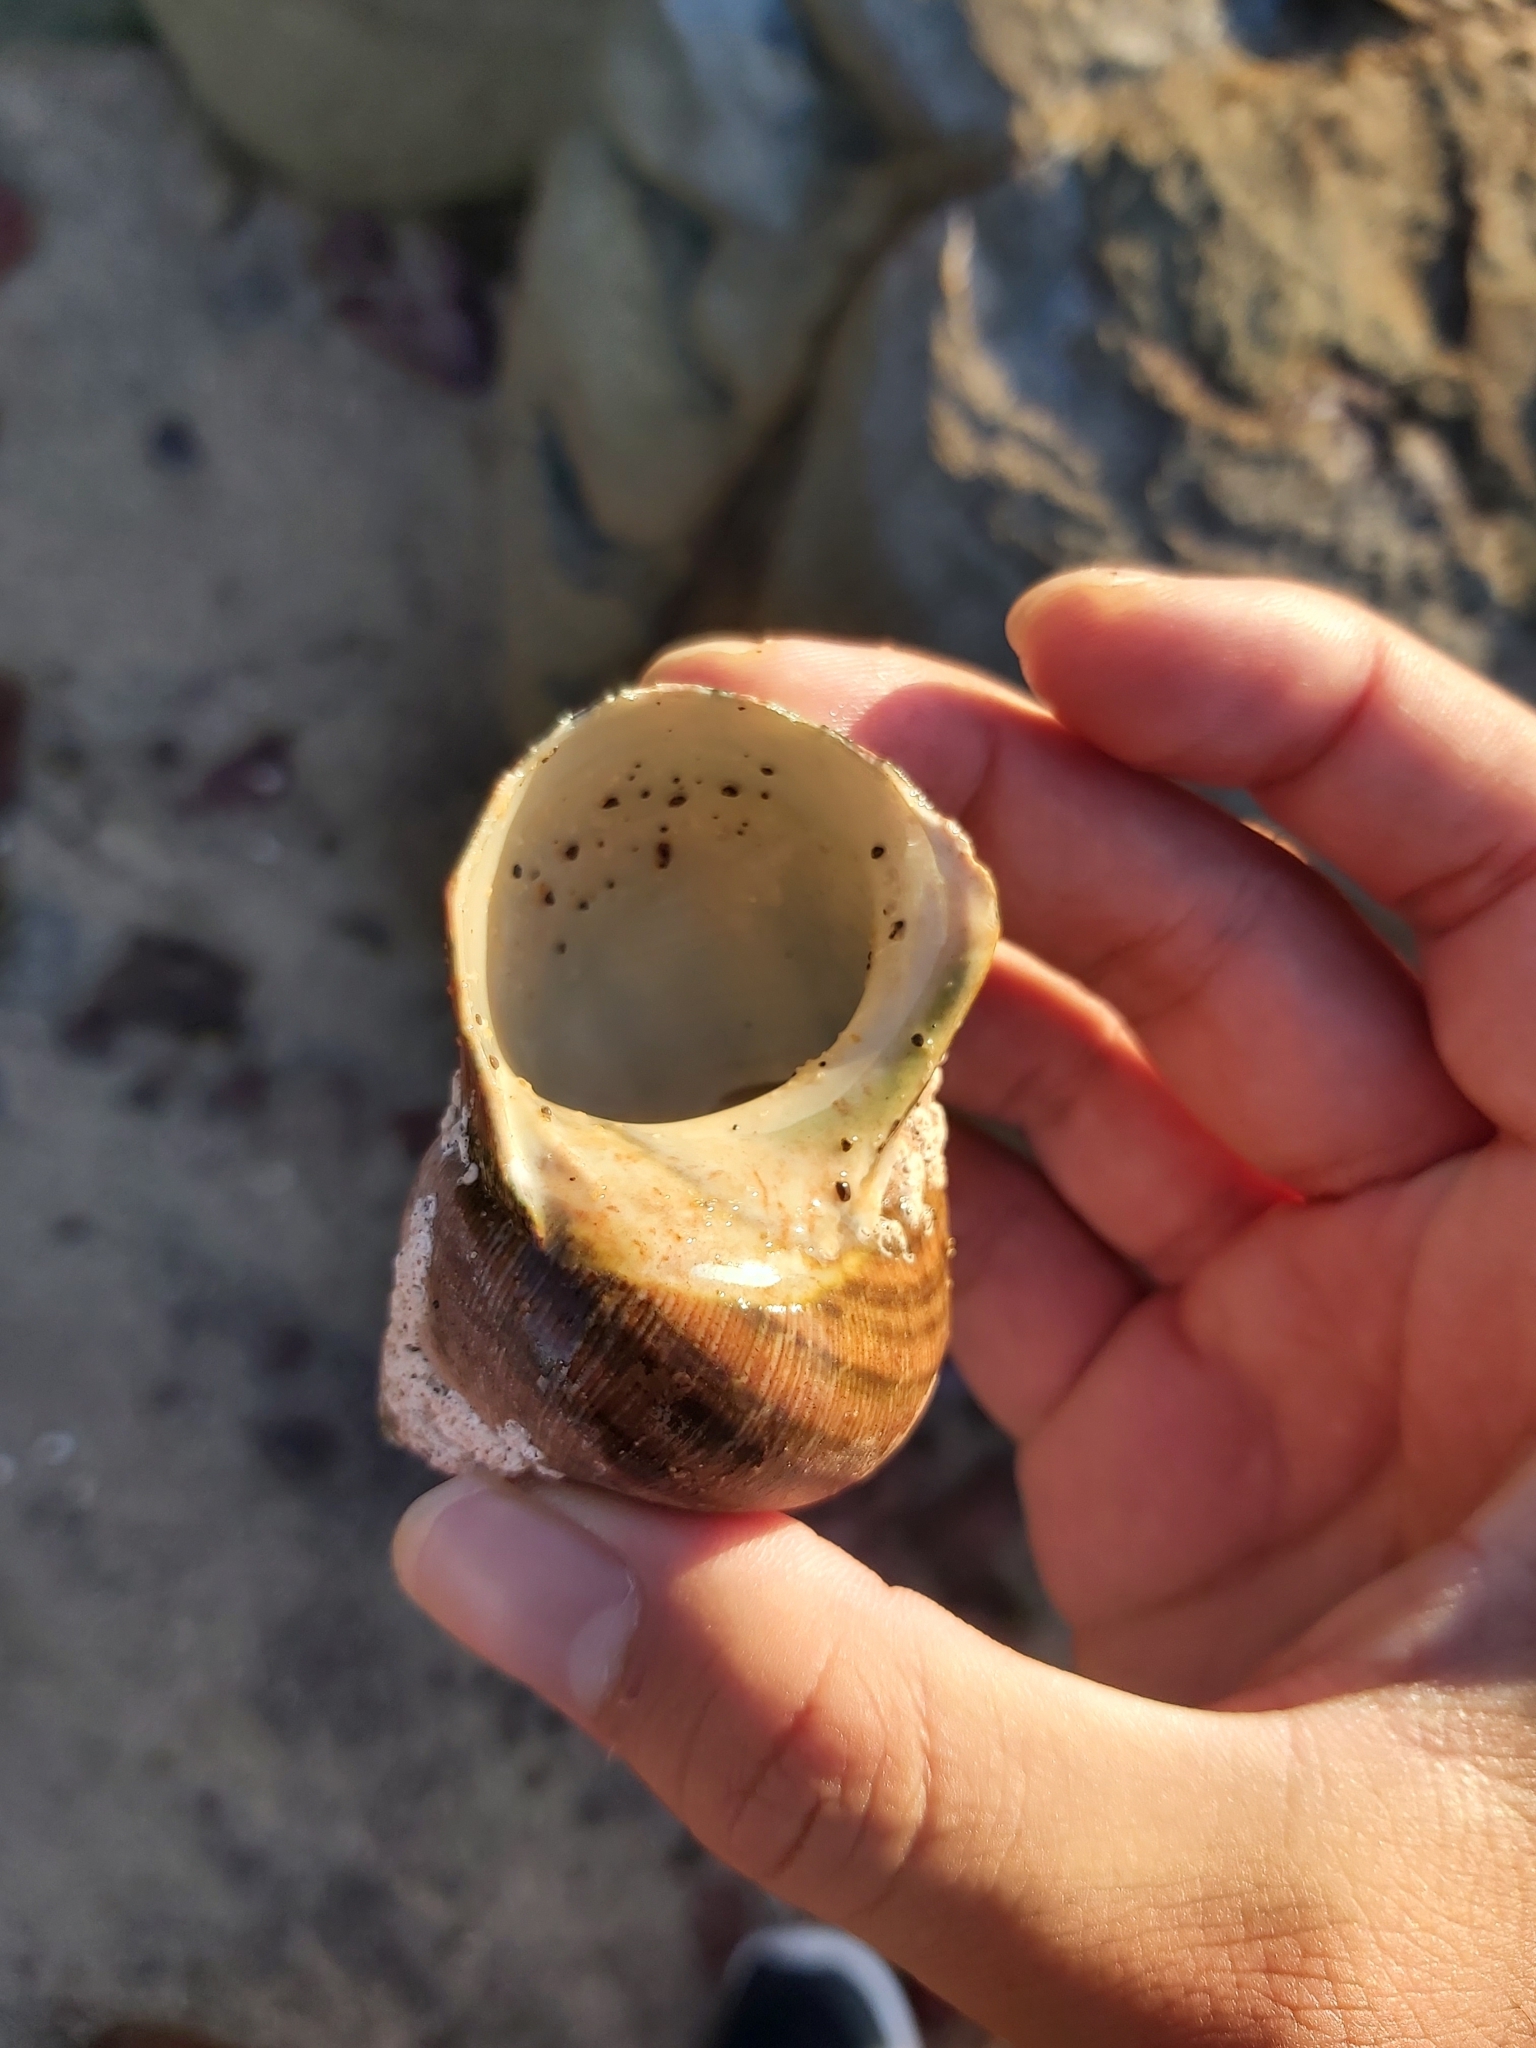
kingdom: Animalia
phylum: Mollusca
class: Gastropoda
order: Trochida
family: Turbinidae
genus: Turbo
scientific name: Turbo militaris
